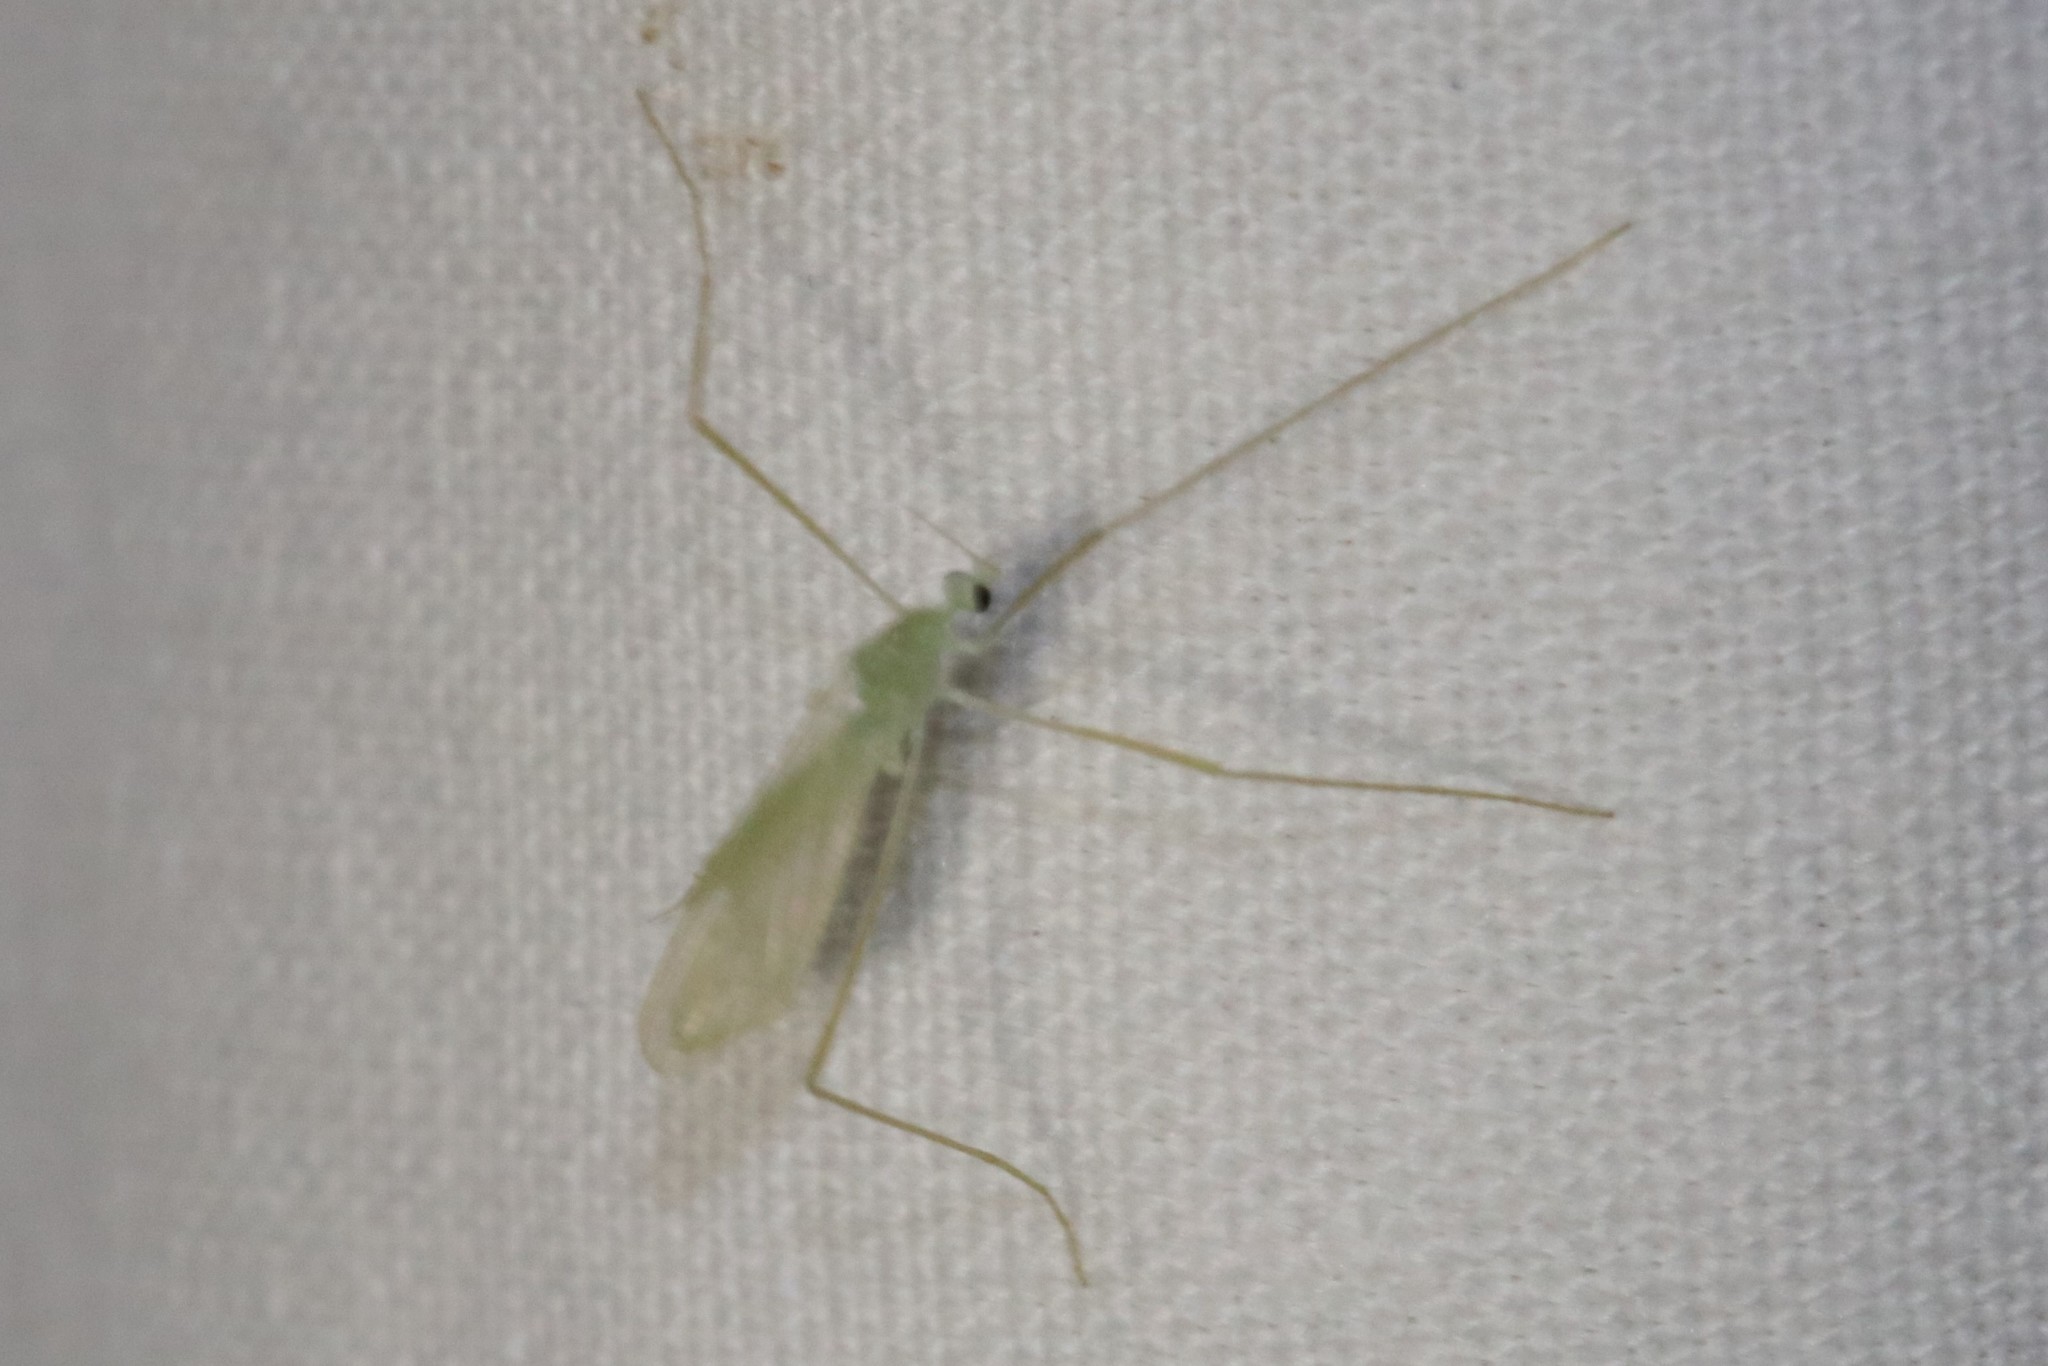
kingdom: Animalia
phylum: Arthropoda
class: Insecta
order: Diptera
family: Limoniidae
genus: Erioptera
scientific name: Erioptera
